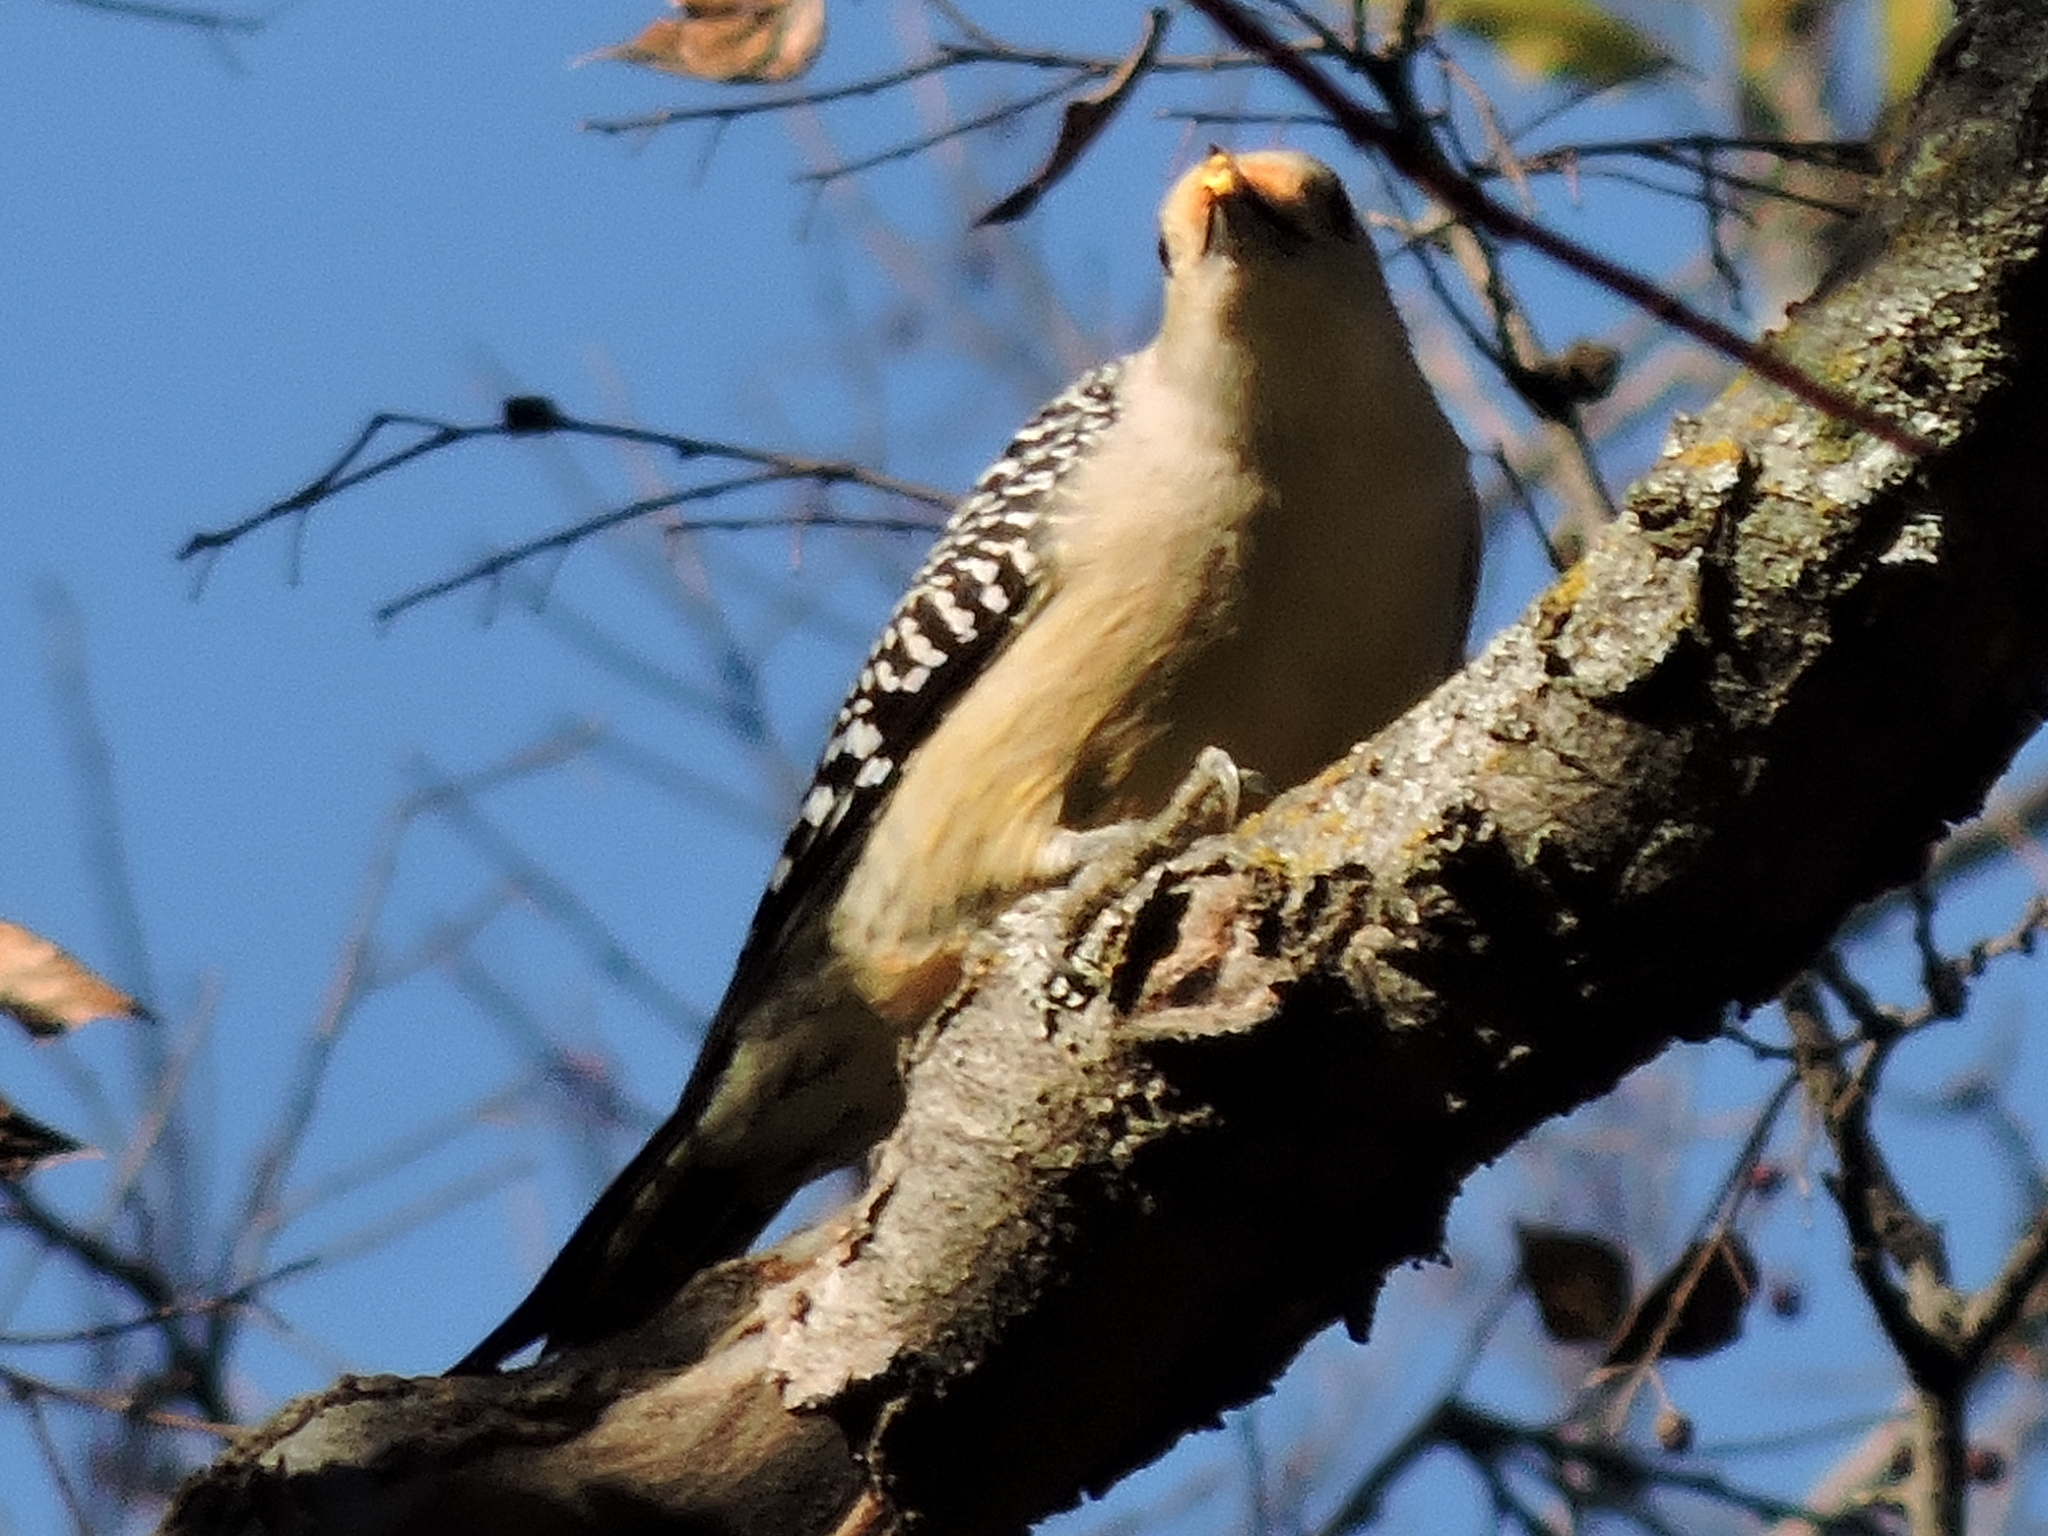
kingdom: Animalia
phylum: Chordata
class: Aves
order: Piciformes
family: Picidae
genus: Melanerpes
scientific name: Melanerpes carolinus
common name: Red-bellied woodpecker
